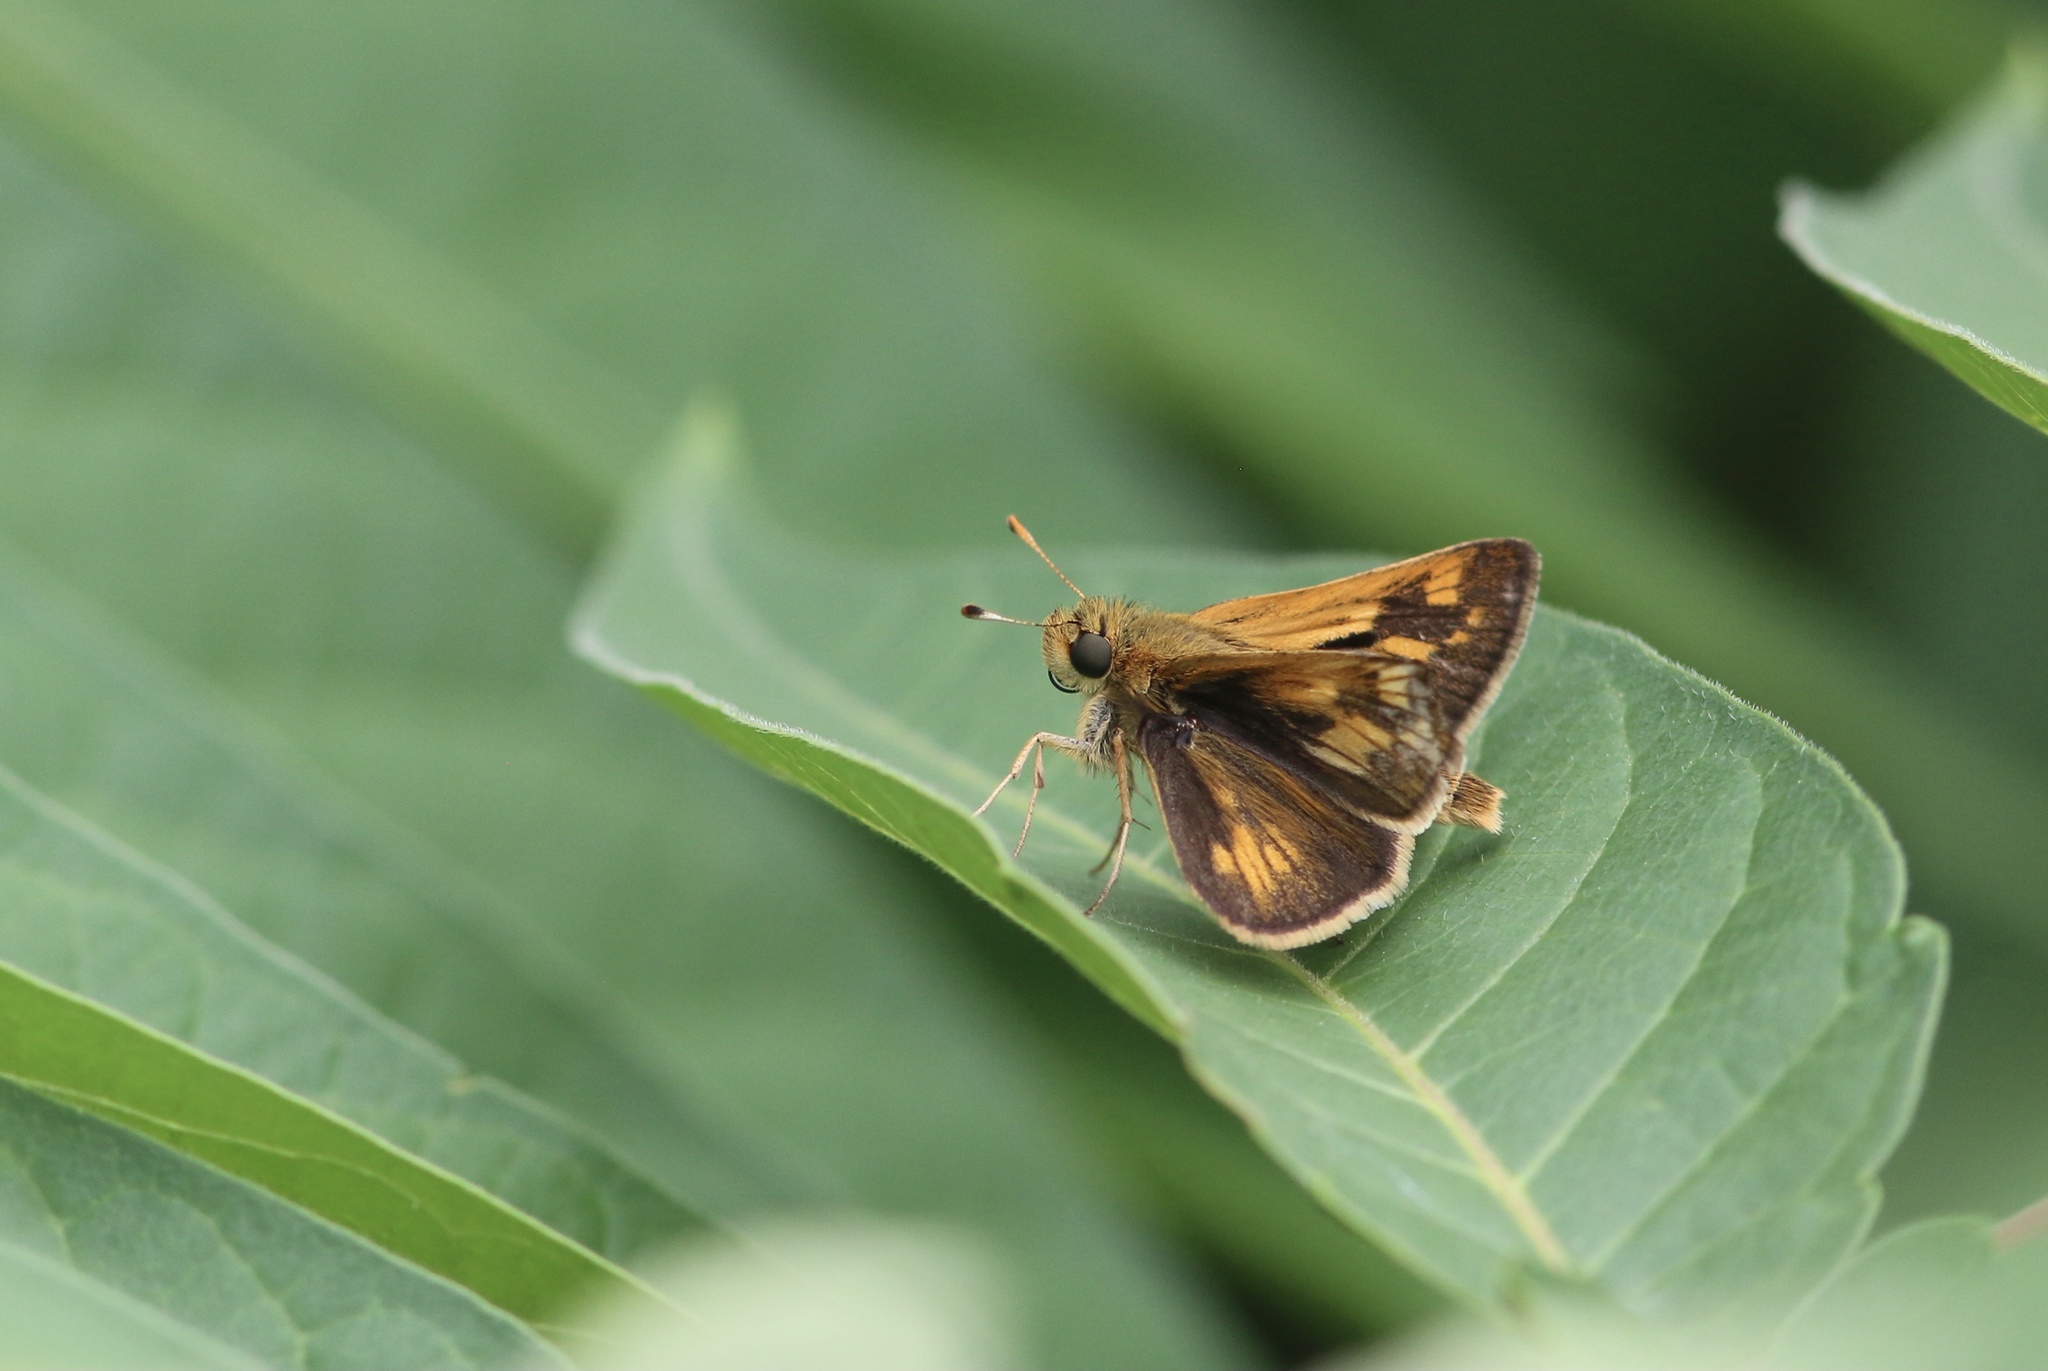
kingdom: Animalia
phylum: Arthropoda
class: Insecta
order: Lepidoptera
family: Hesperiidae
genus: Polites
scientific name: Polites coras
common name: Peck's skipper
